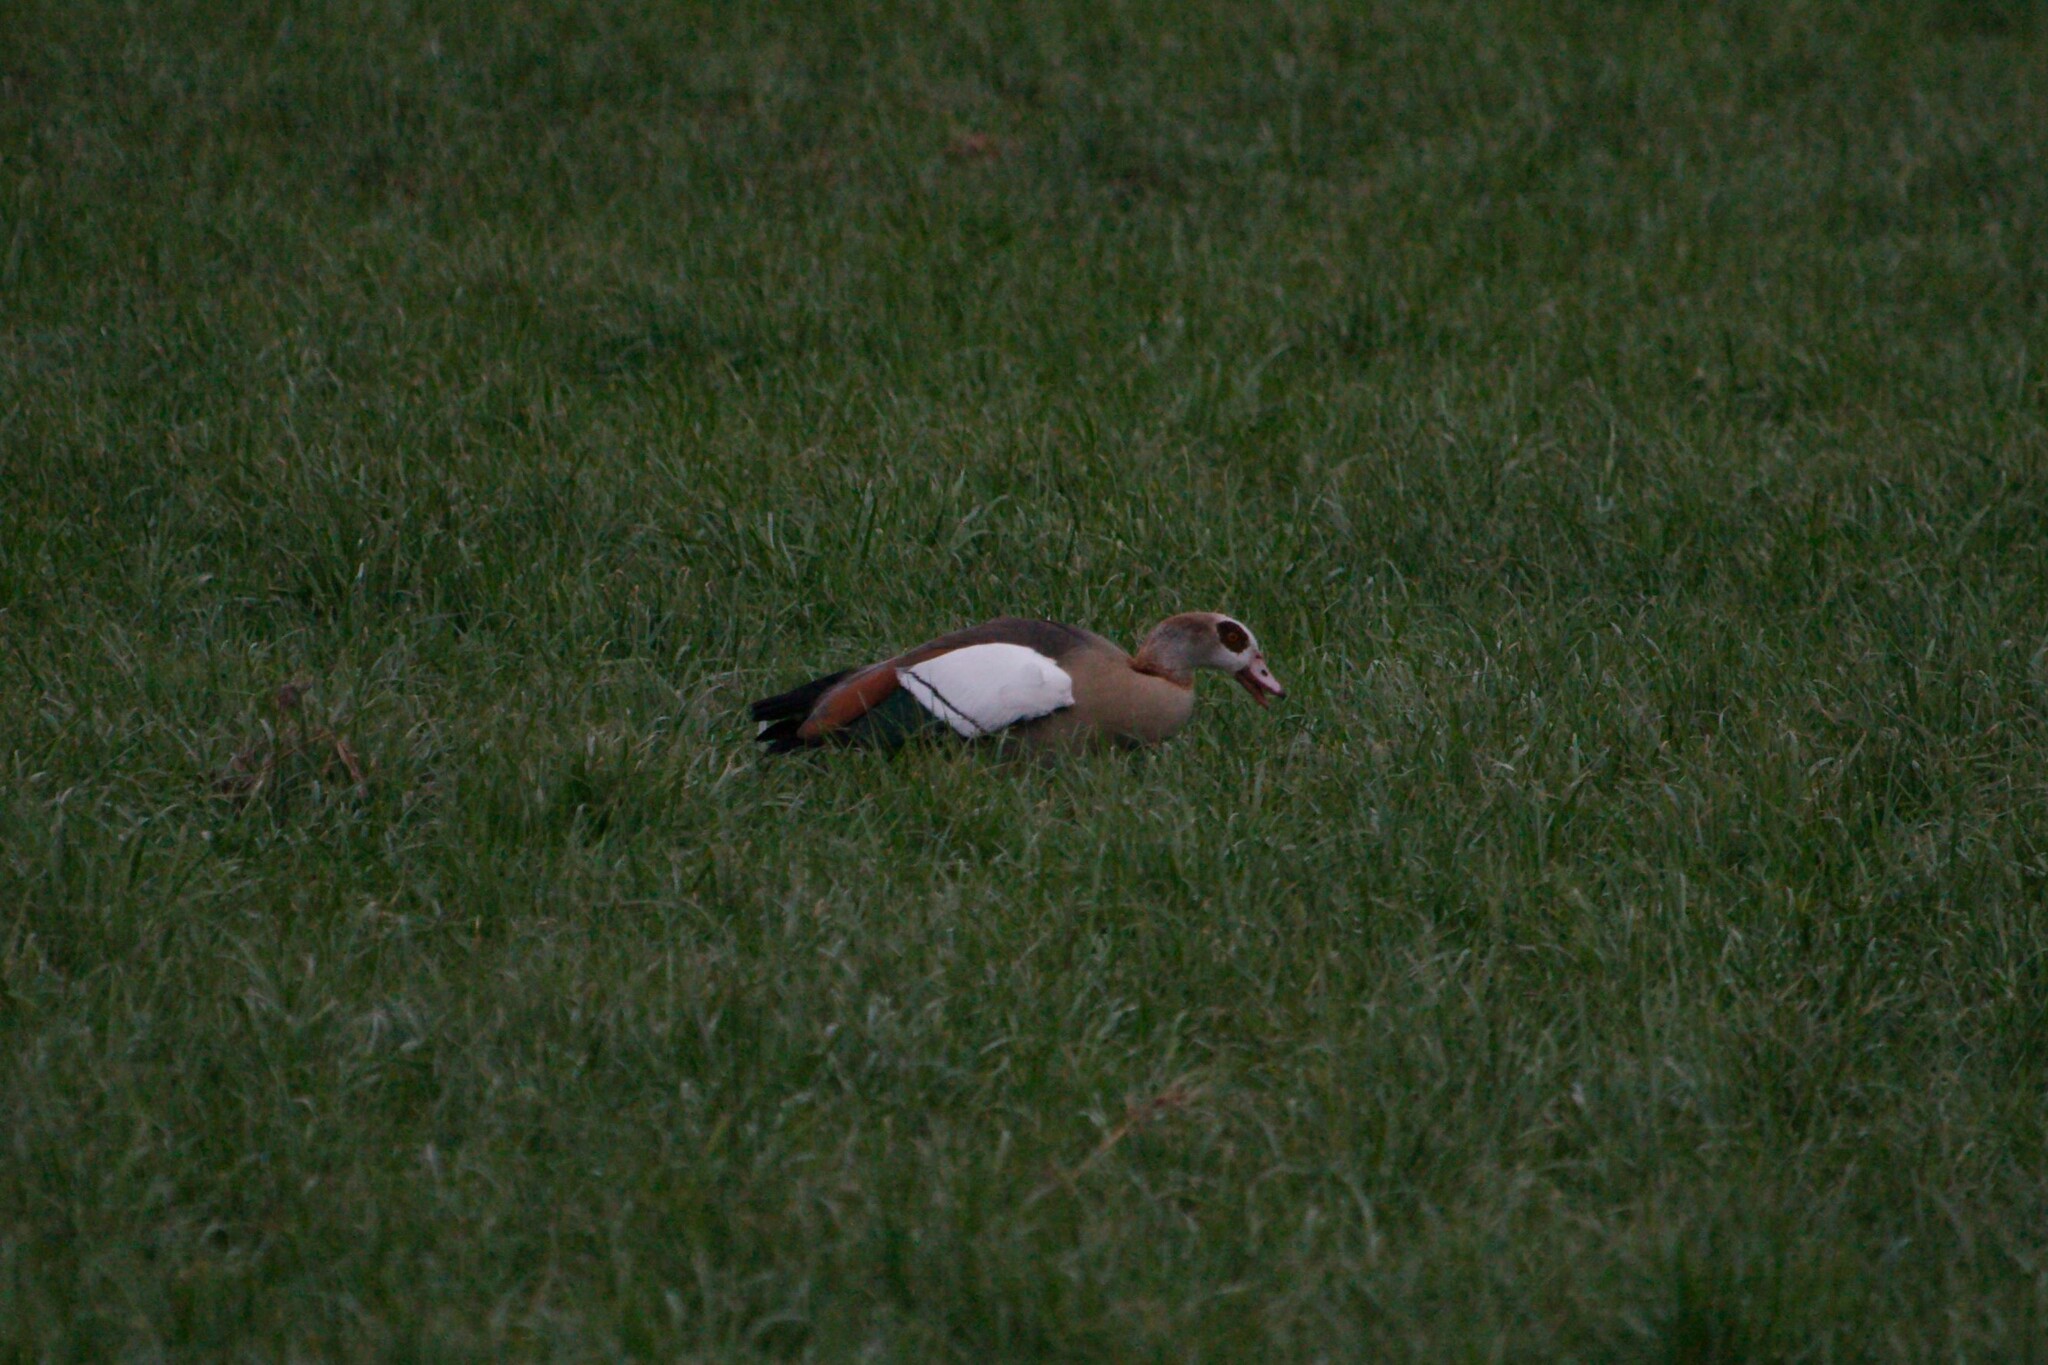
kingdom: Animalia
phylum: Chordata
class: Aves
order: Anseriformes
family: Anatidae
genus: Alopochen
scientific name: Alopochen aegyptiaca
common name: Egyptian goose
